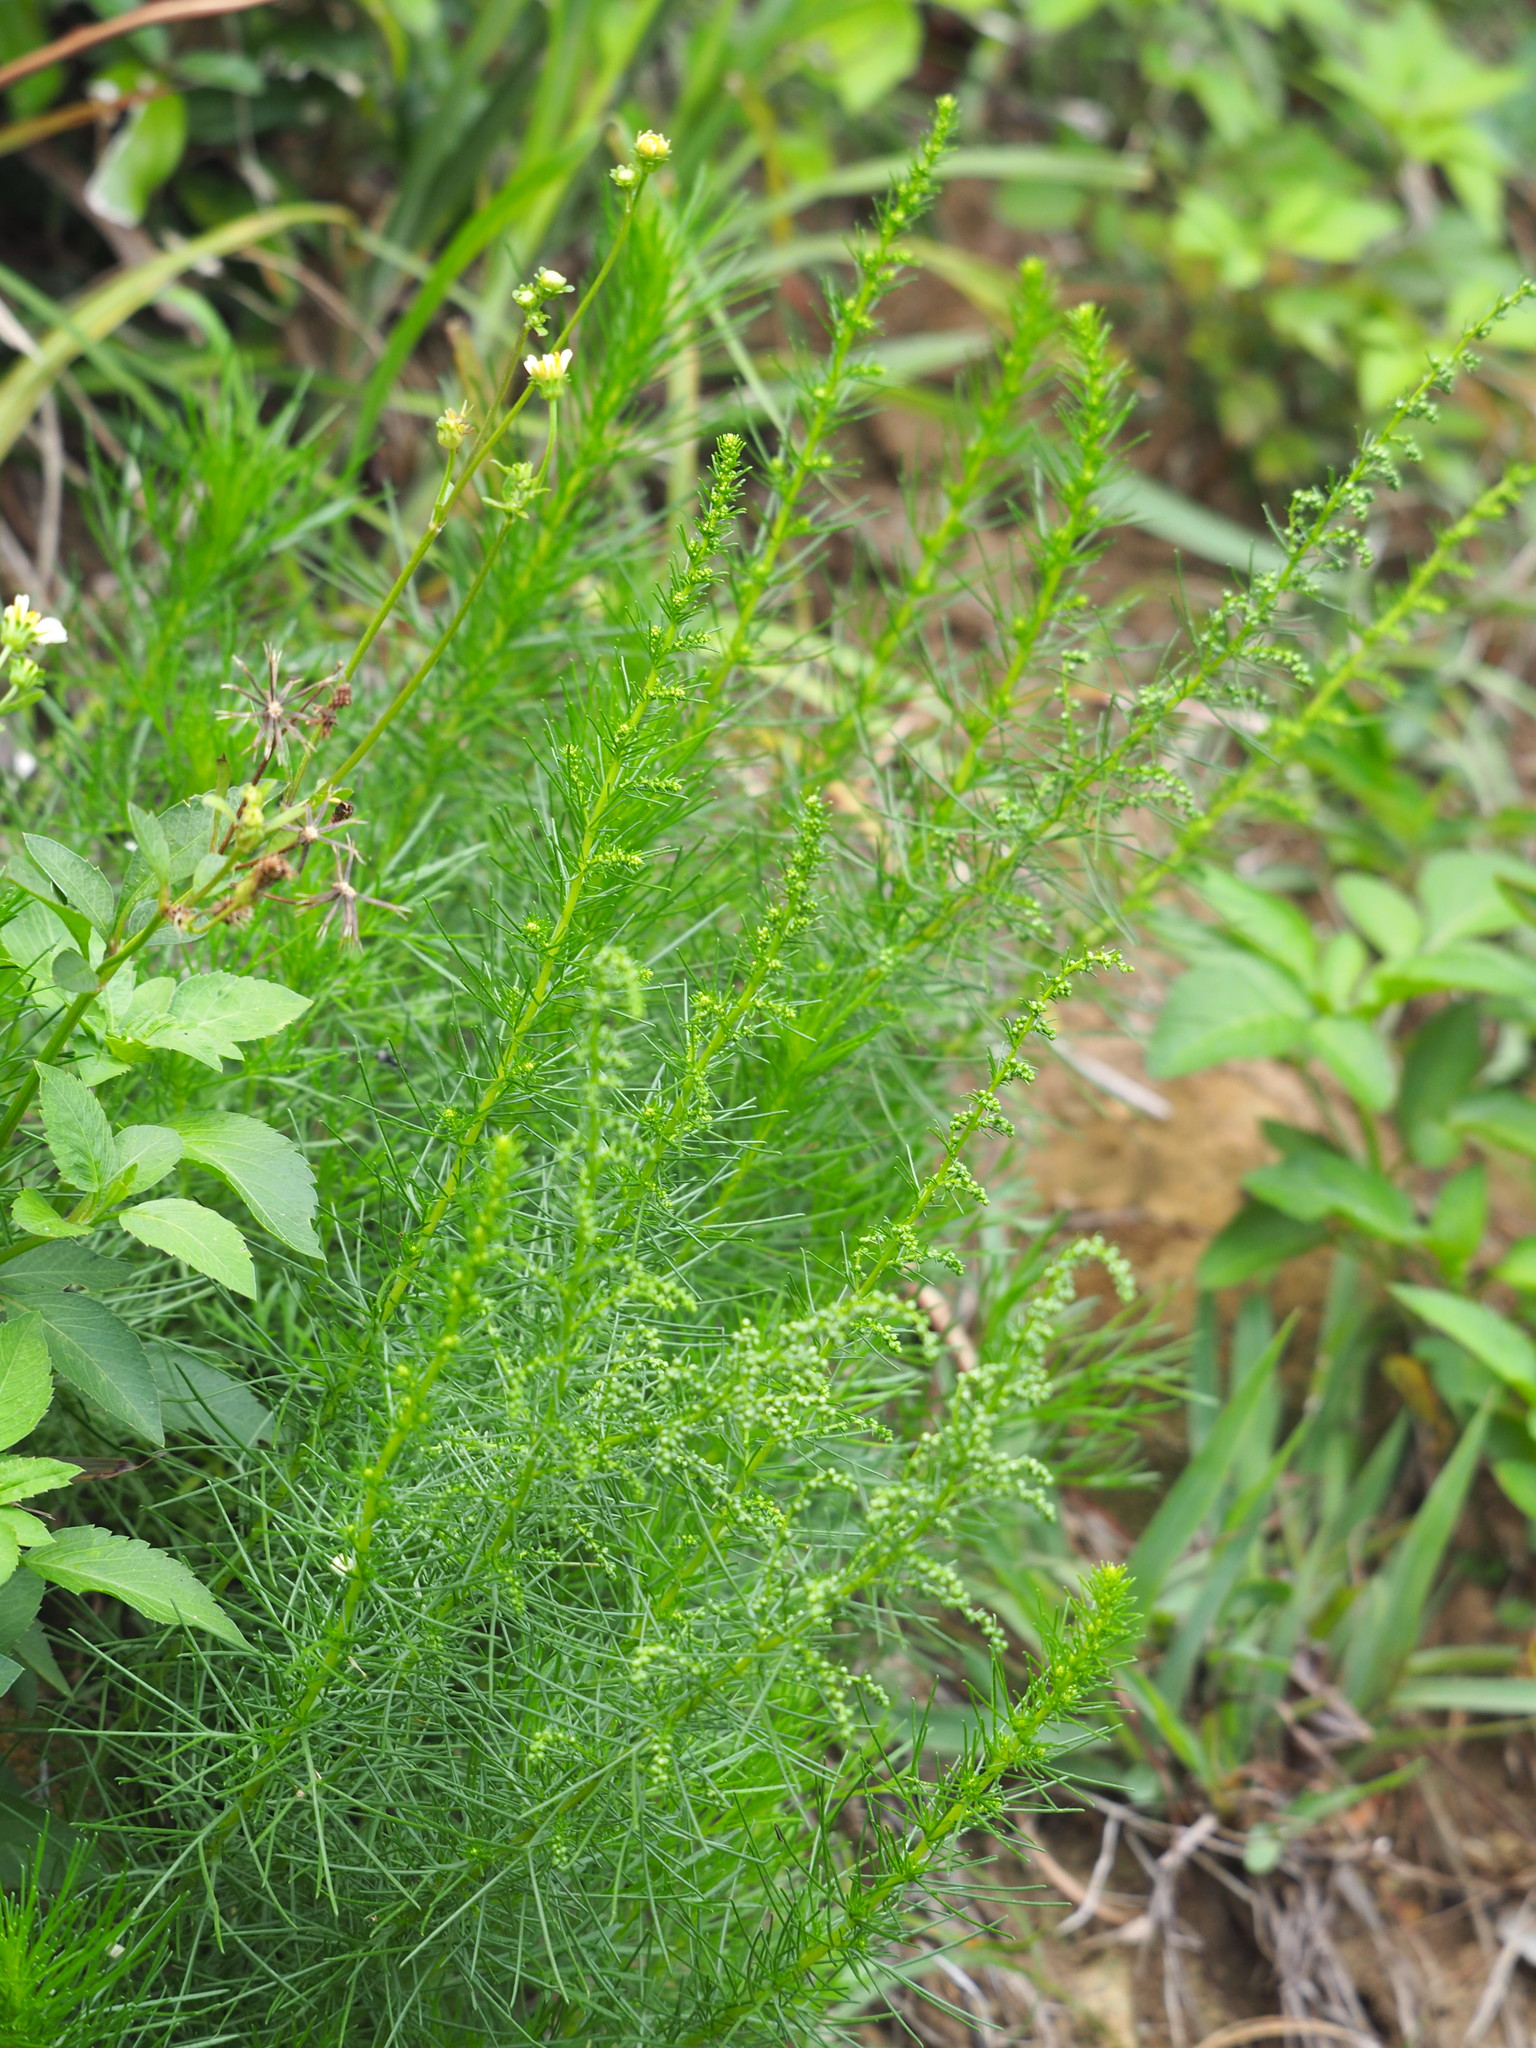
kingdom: Plantae
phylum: Tracheophyta
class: Magnoliopsida
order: Asterales
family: Asteraceae
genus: Artemisia
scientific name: Artemisia capillaris
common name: Yin-chen wormwood
